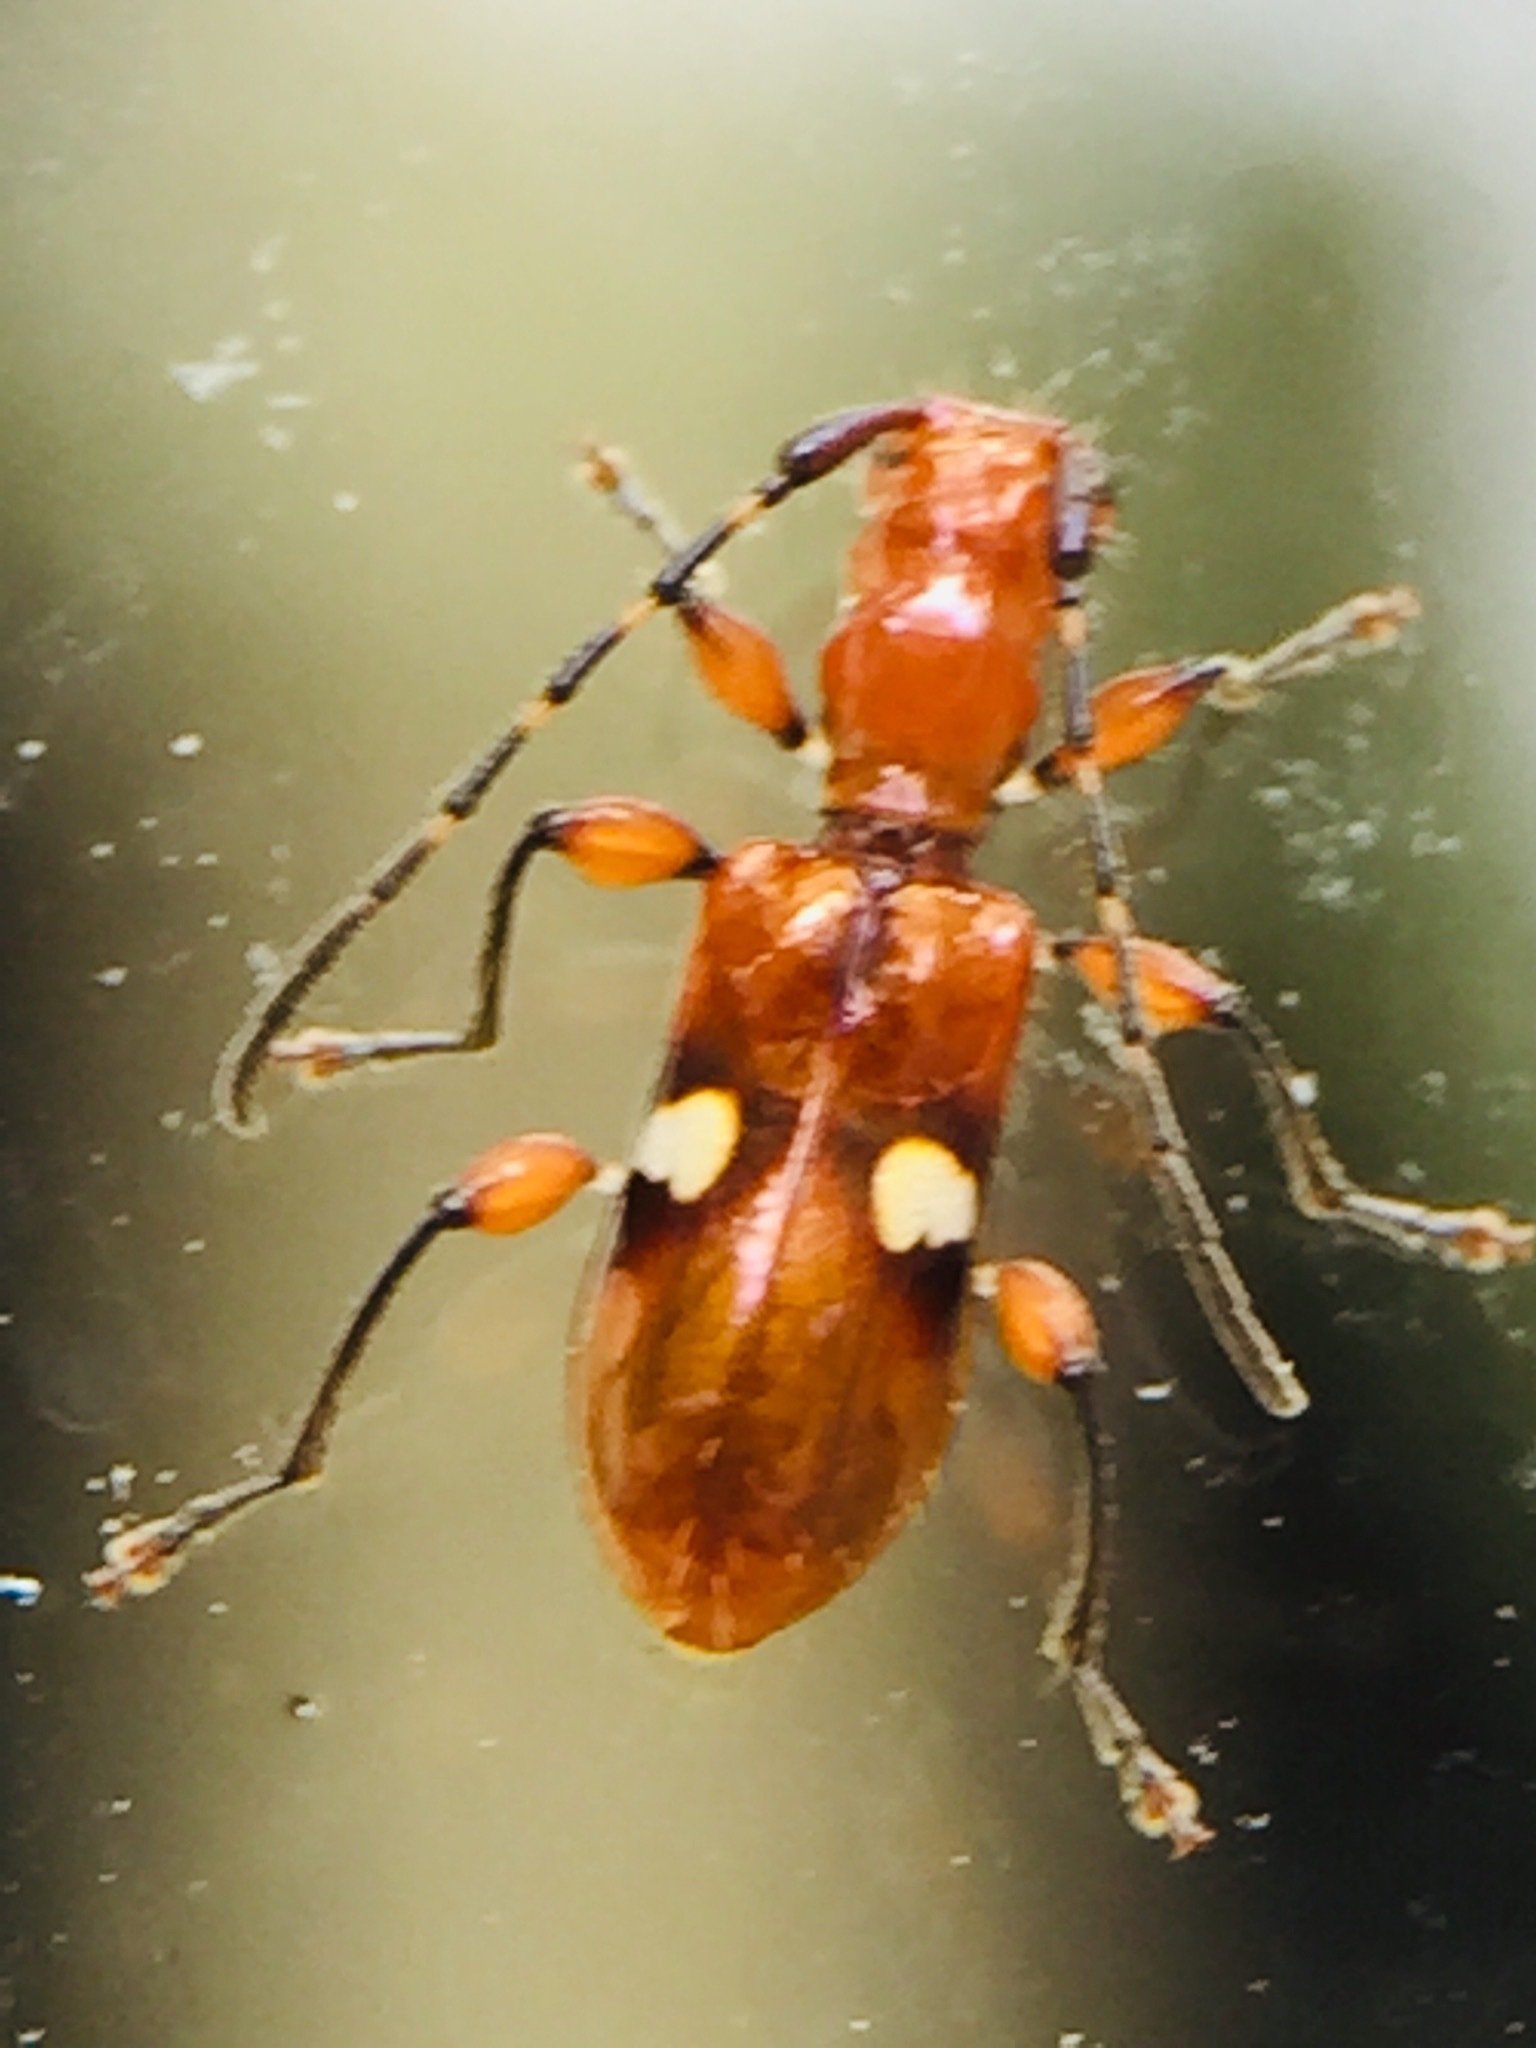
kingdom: Animalia
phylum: Arthropoda
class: Insecta
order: Coleoptera
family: Cerambycidae
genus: Zorion
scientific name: Zorion batesi
